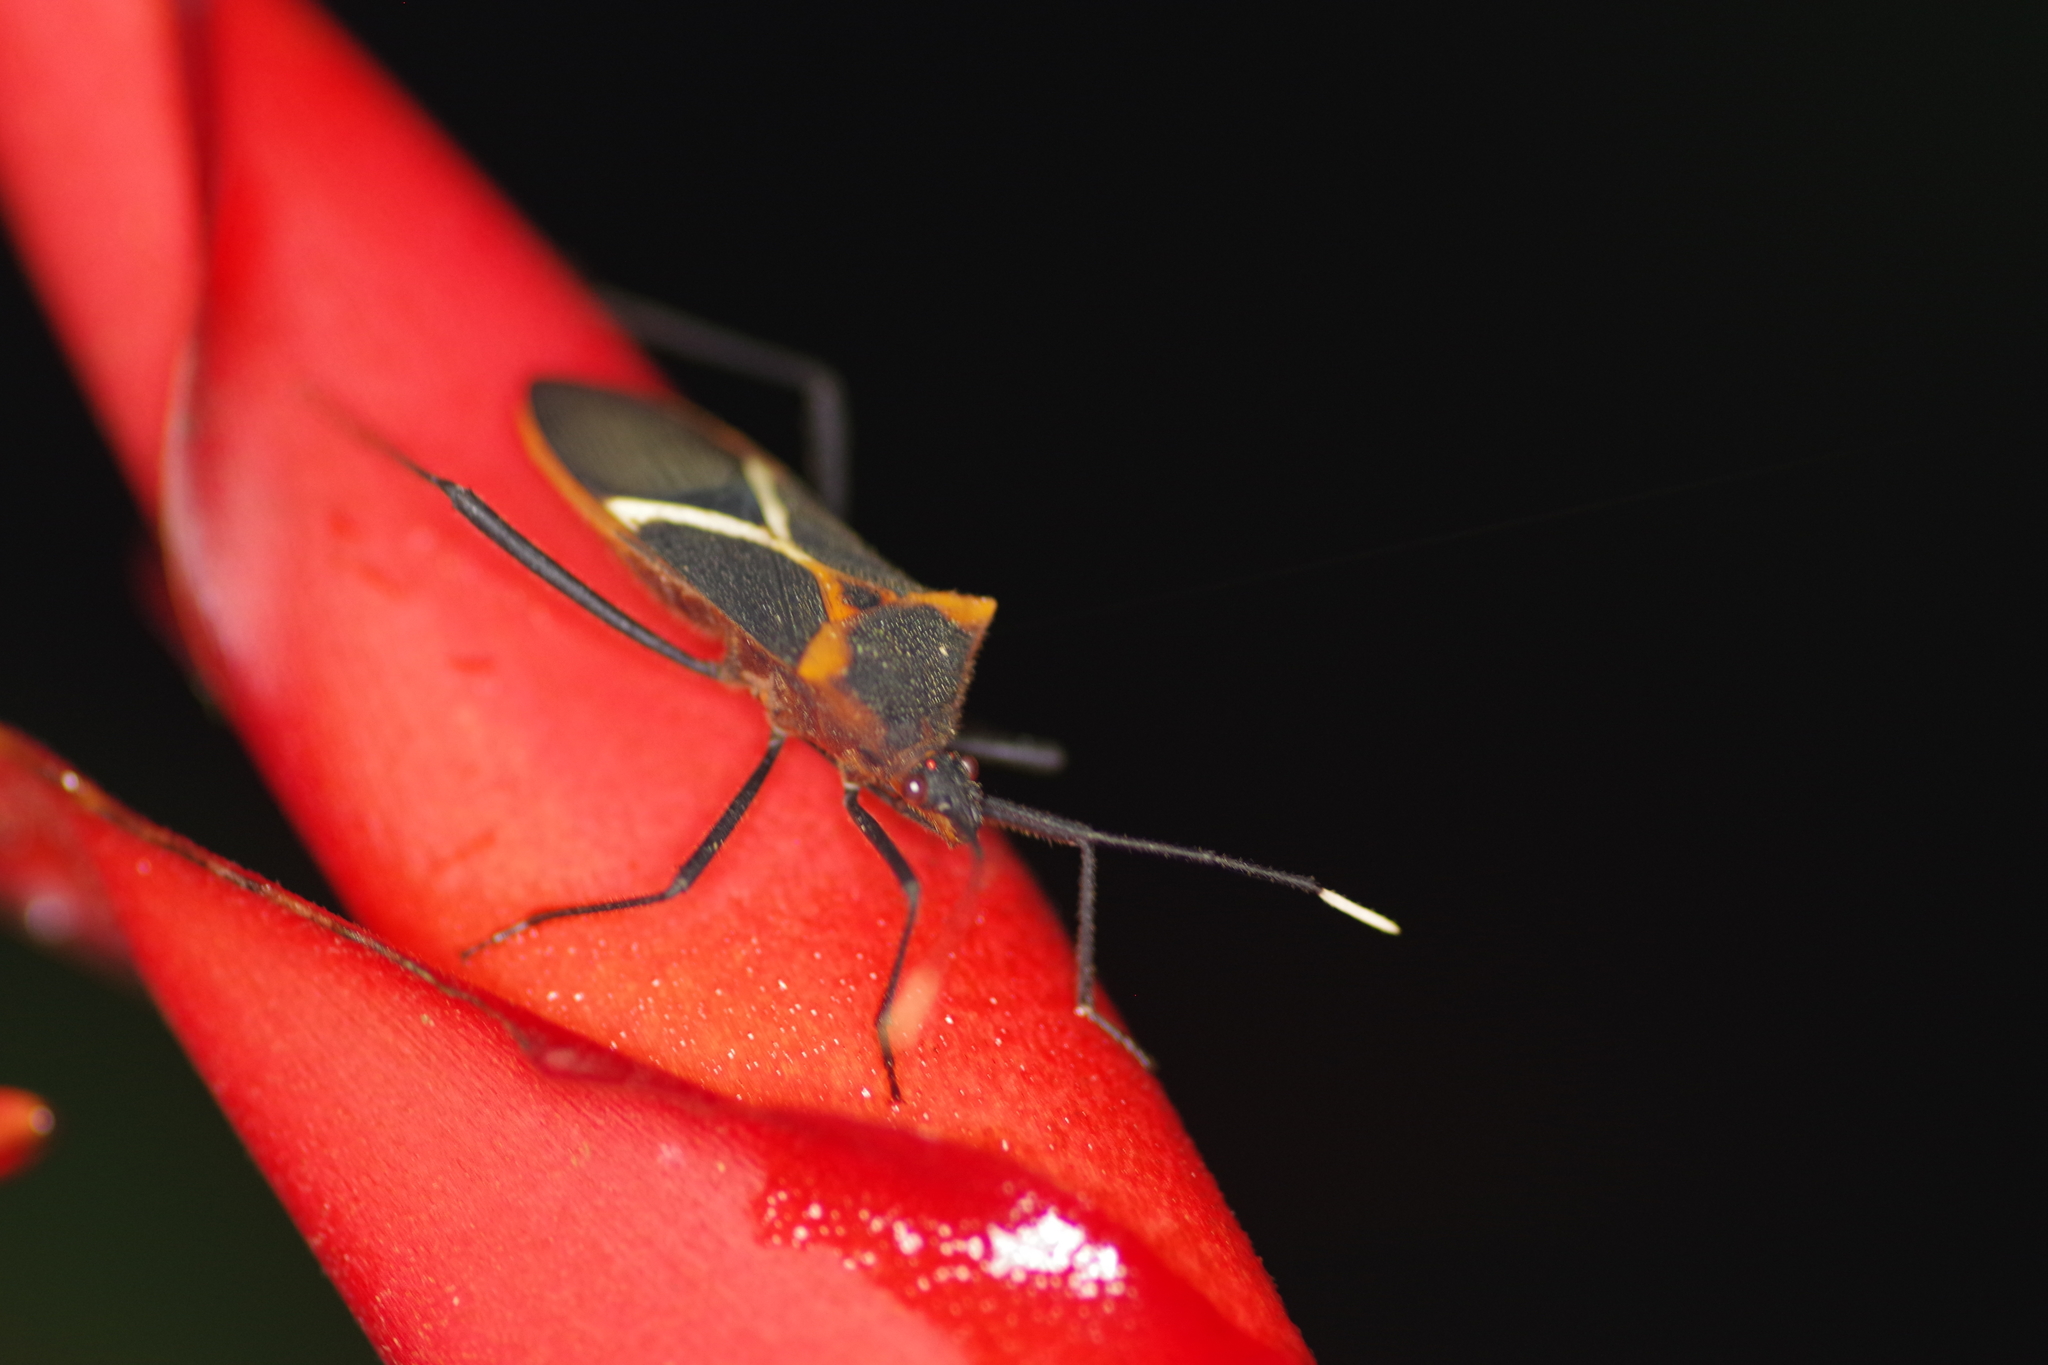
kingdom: Animalia
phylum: Arthropoda
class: Insecta
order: Hemiptera
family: Coreidae
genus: Leptoscelis
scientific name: Leptoscelis tricolor
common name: Heliconia bug
